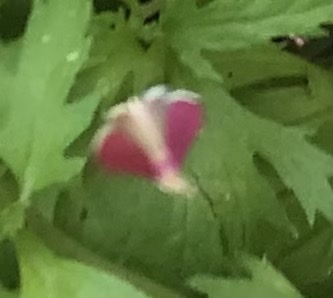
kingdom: Animalia
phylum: Arthropoda
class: Insecta
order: Lepidoptera
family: Crambidae
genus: Pyrausta
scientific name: Pyrausta inornatalis
